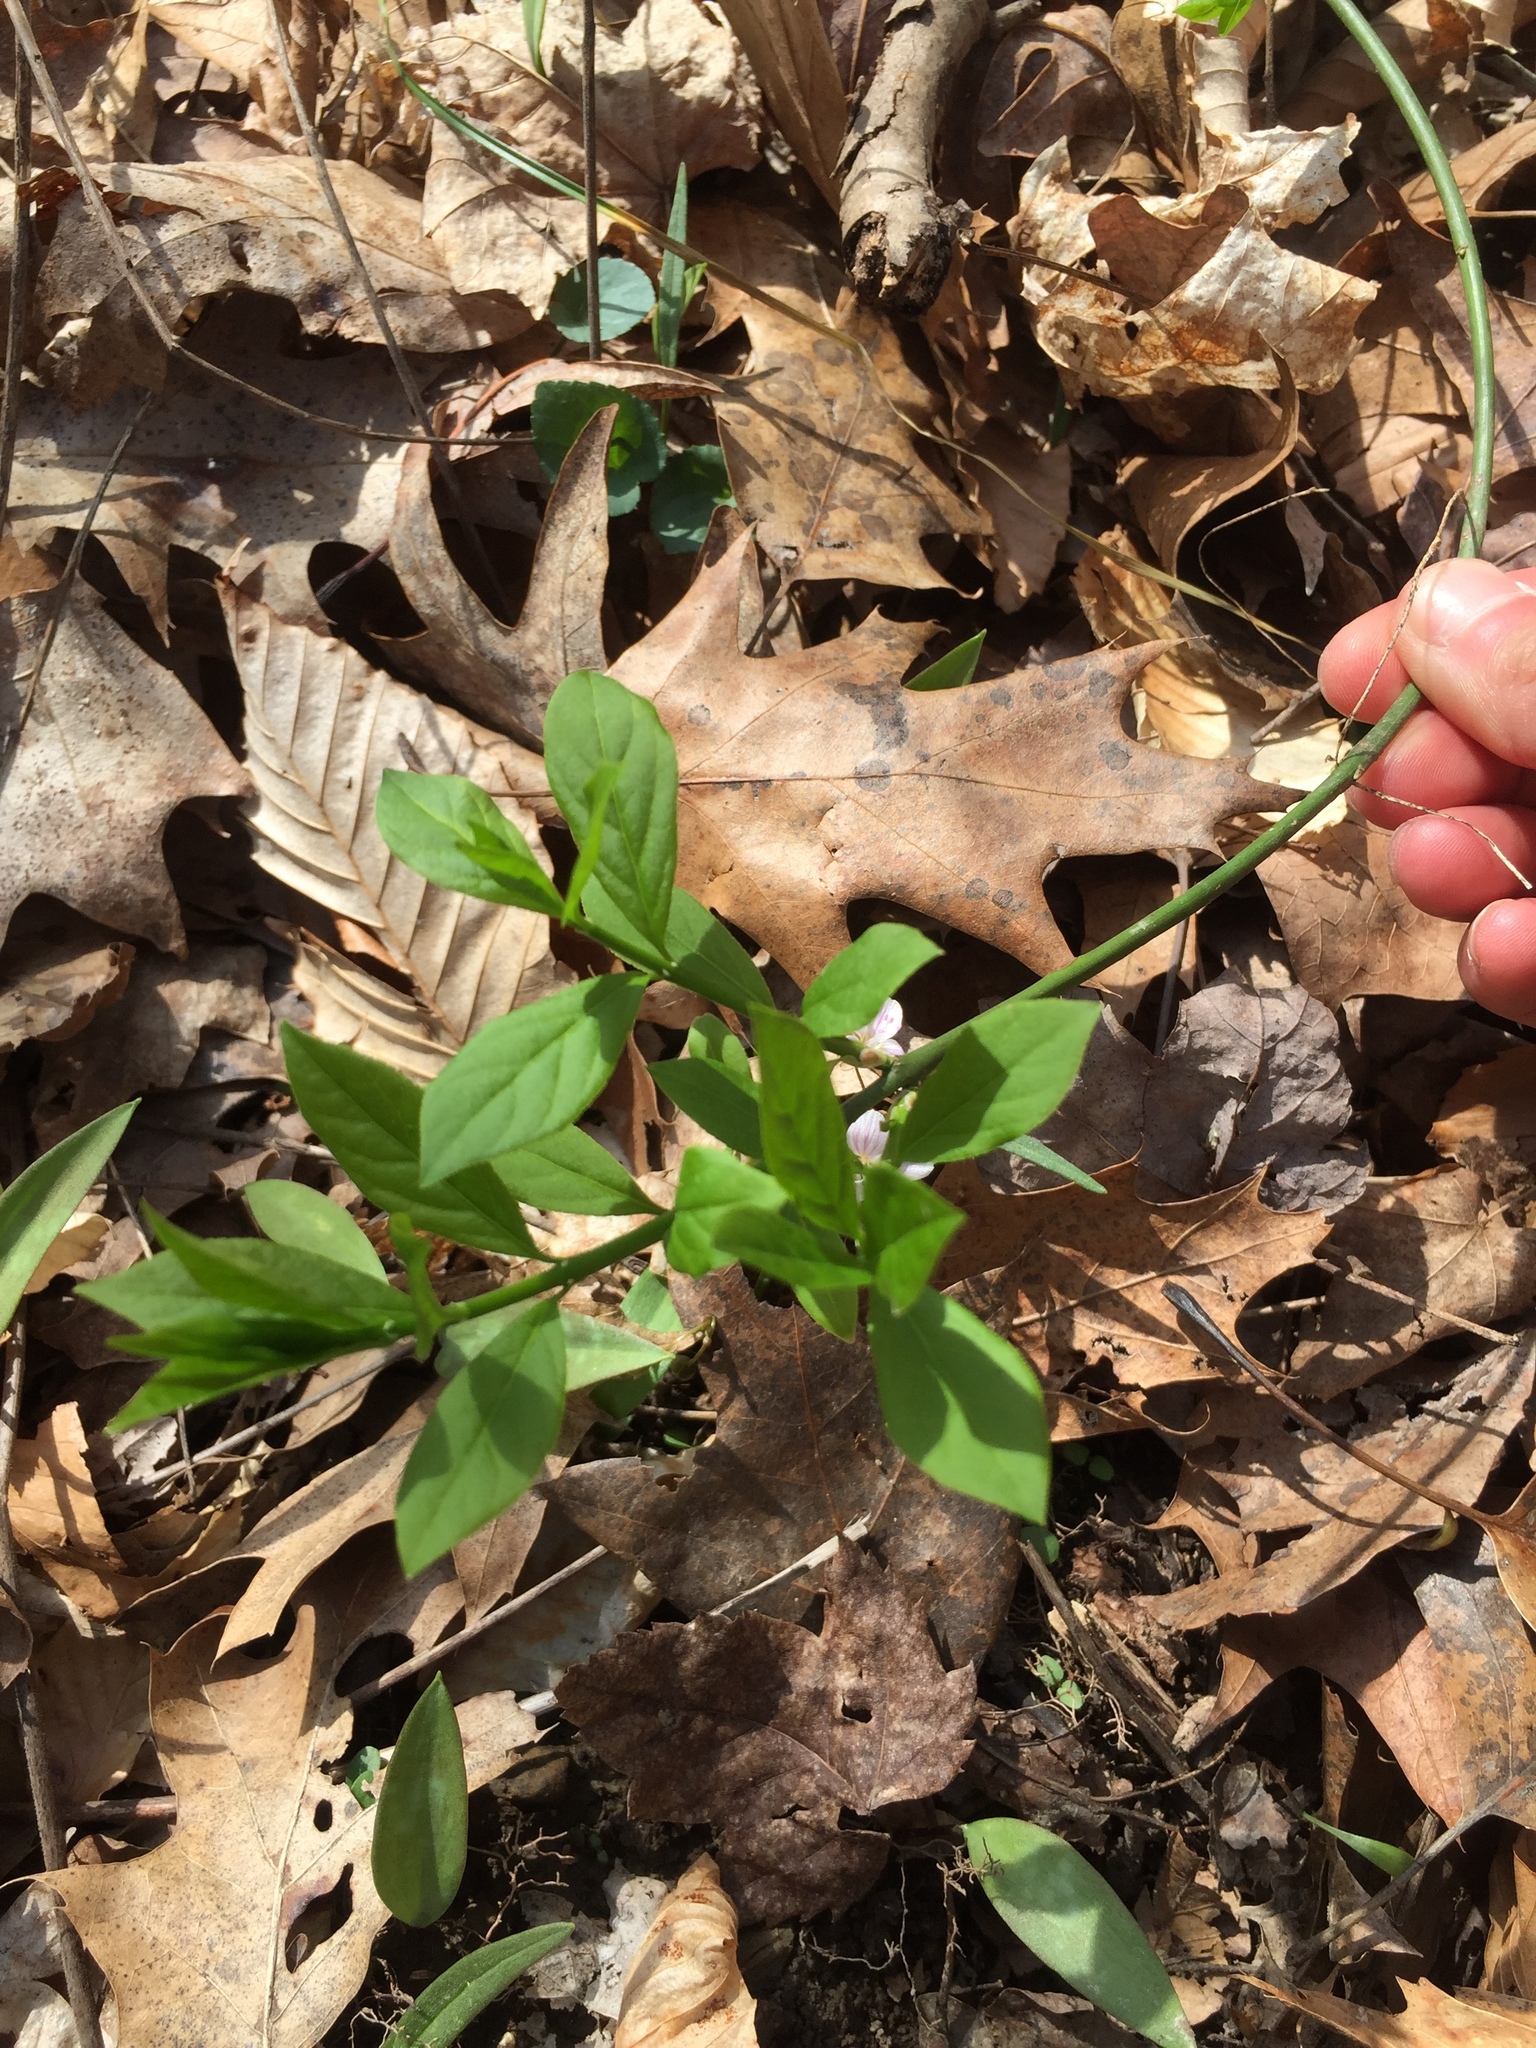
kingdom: Plantae
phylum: Tracheophyta
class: Magnoliopsida
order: Celastrales
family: Celastraceae
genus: Euonymus
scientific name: Euonymus obovatus
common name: Running strawberry-bush
